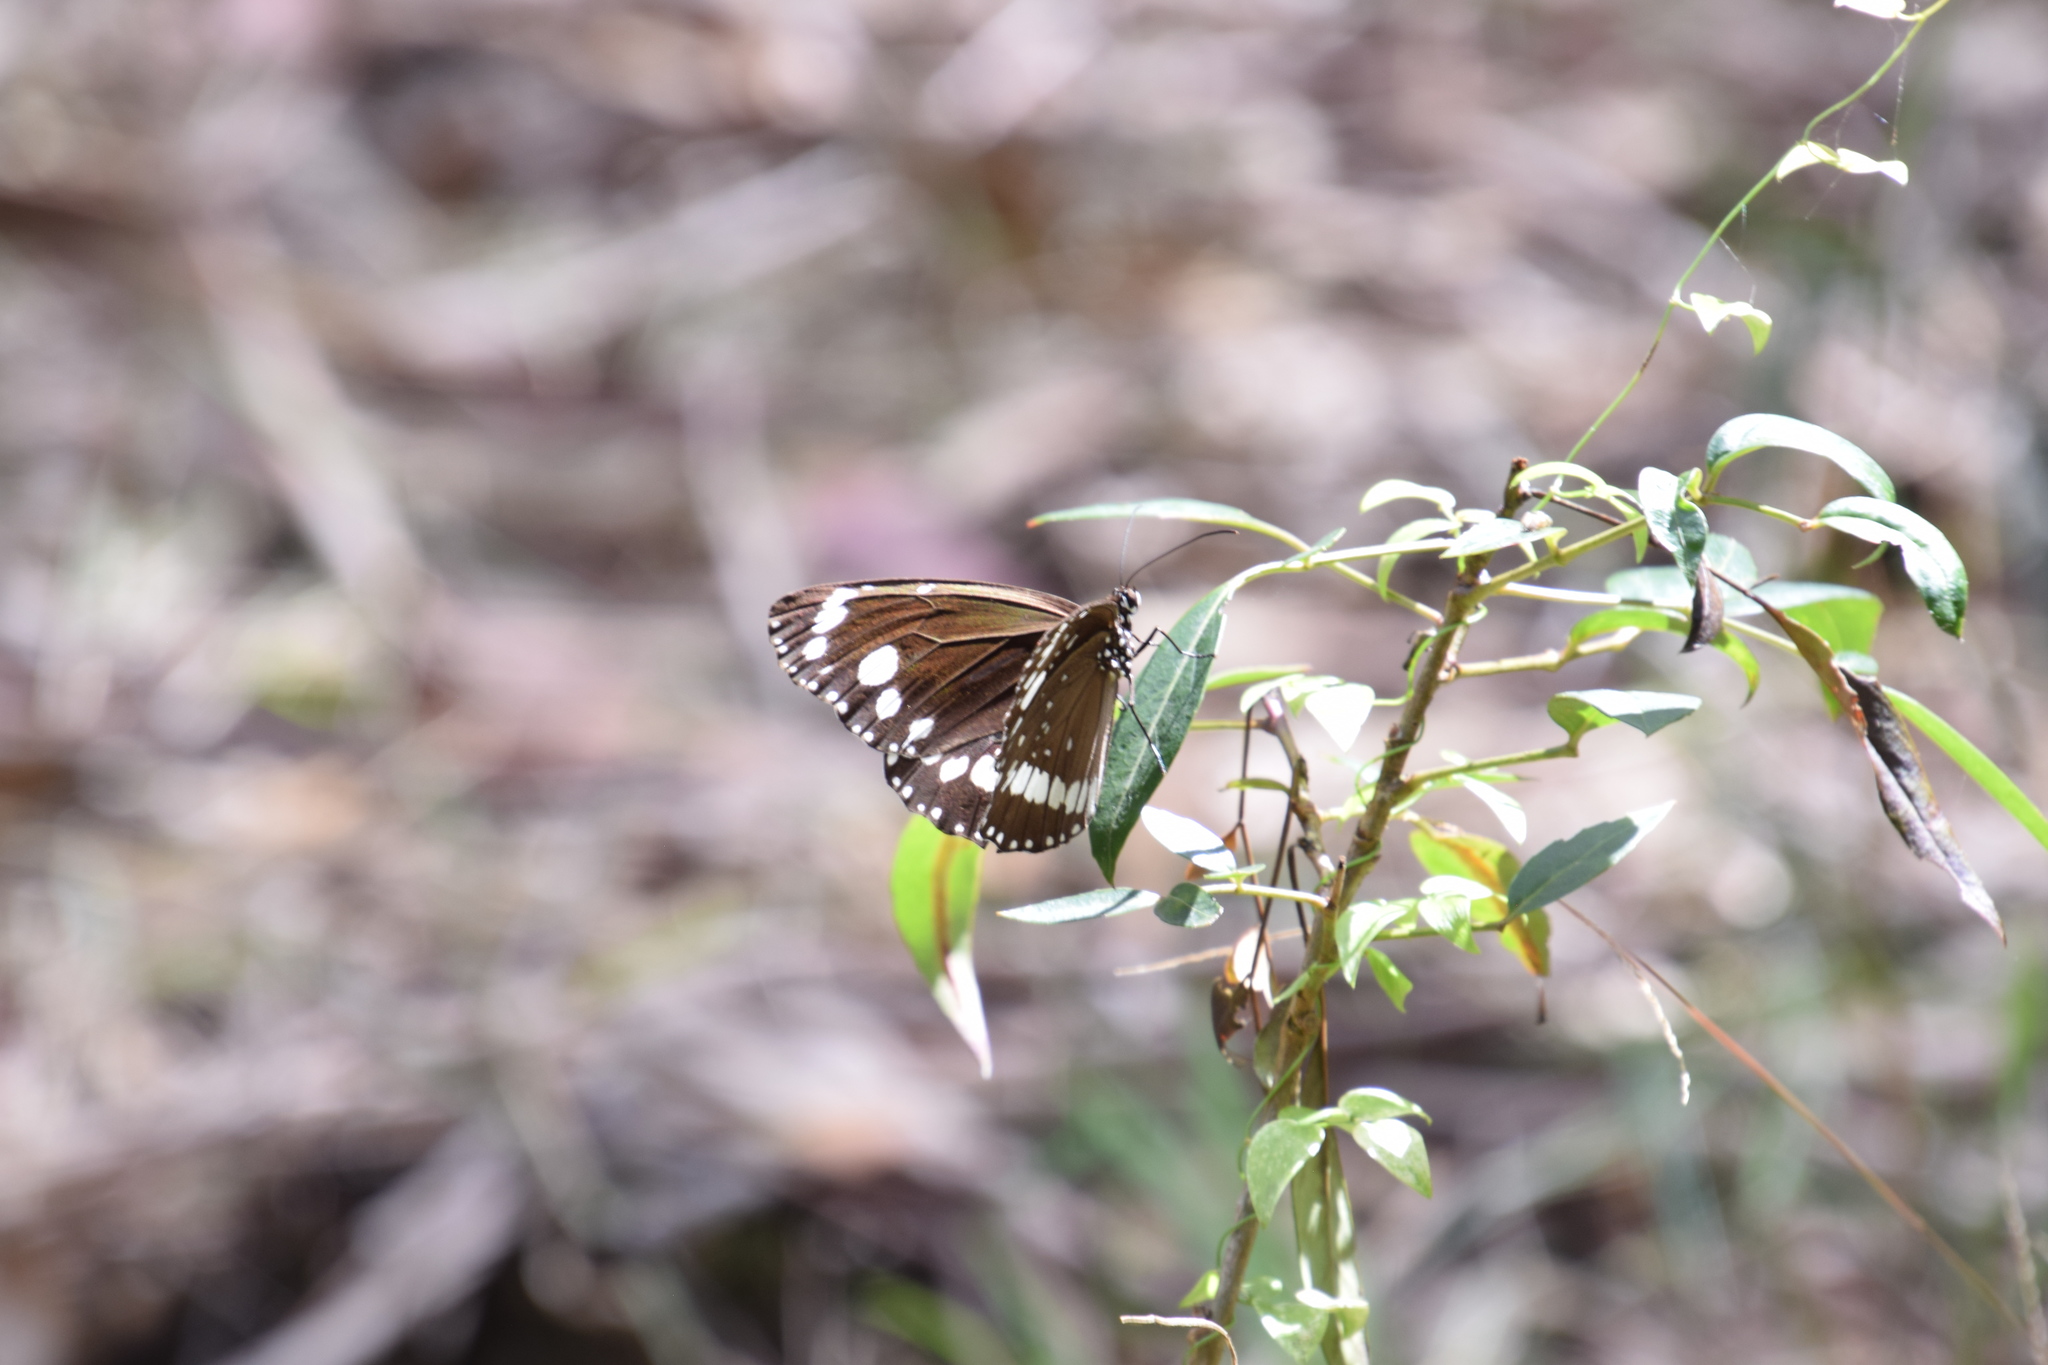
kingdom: Animalia
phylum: Arthropoda
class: Insecta
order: Lepidoptera
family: Nymphalidae
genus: Euploea
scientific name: Euploea core
